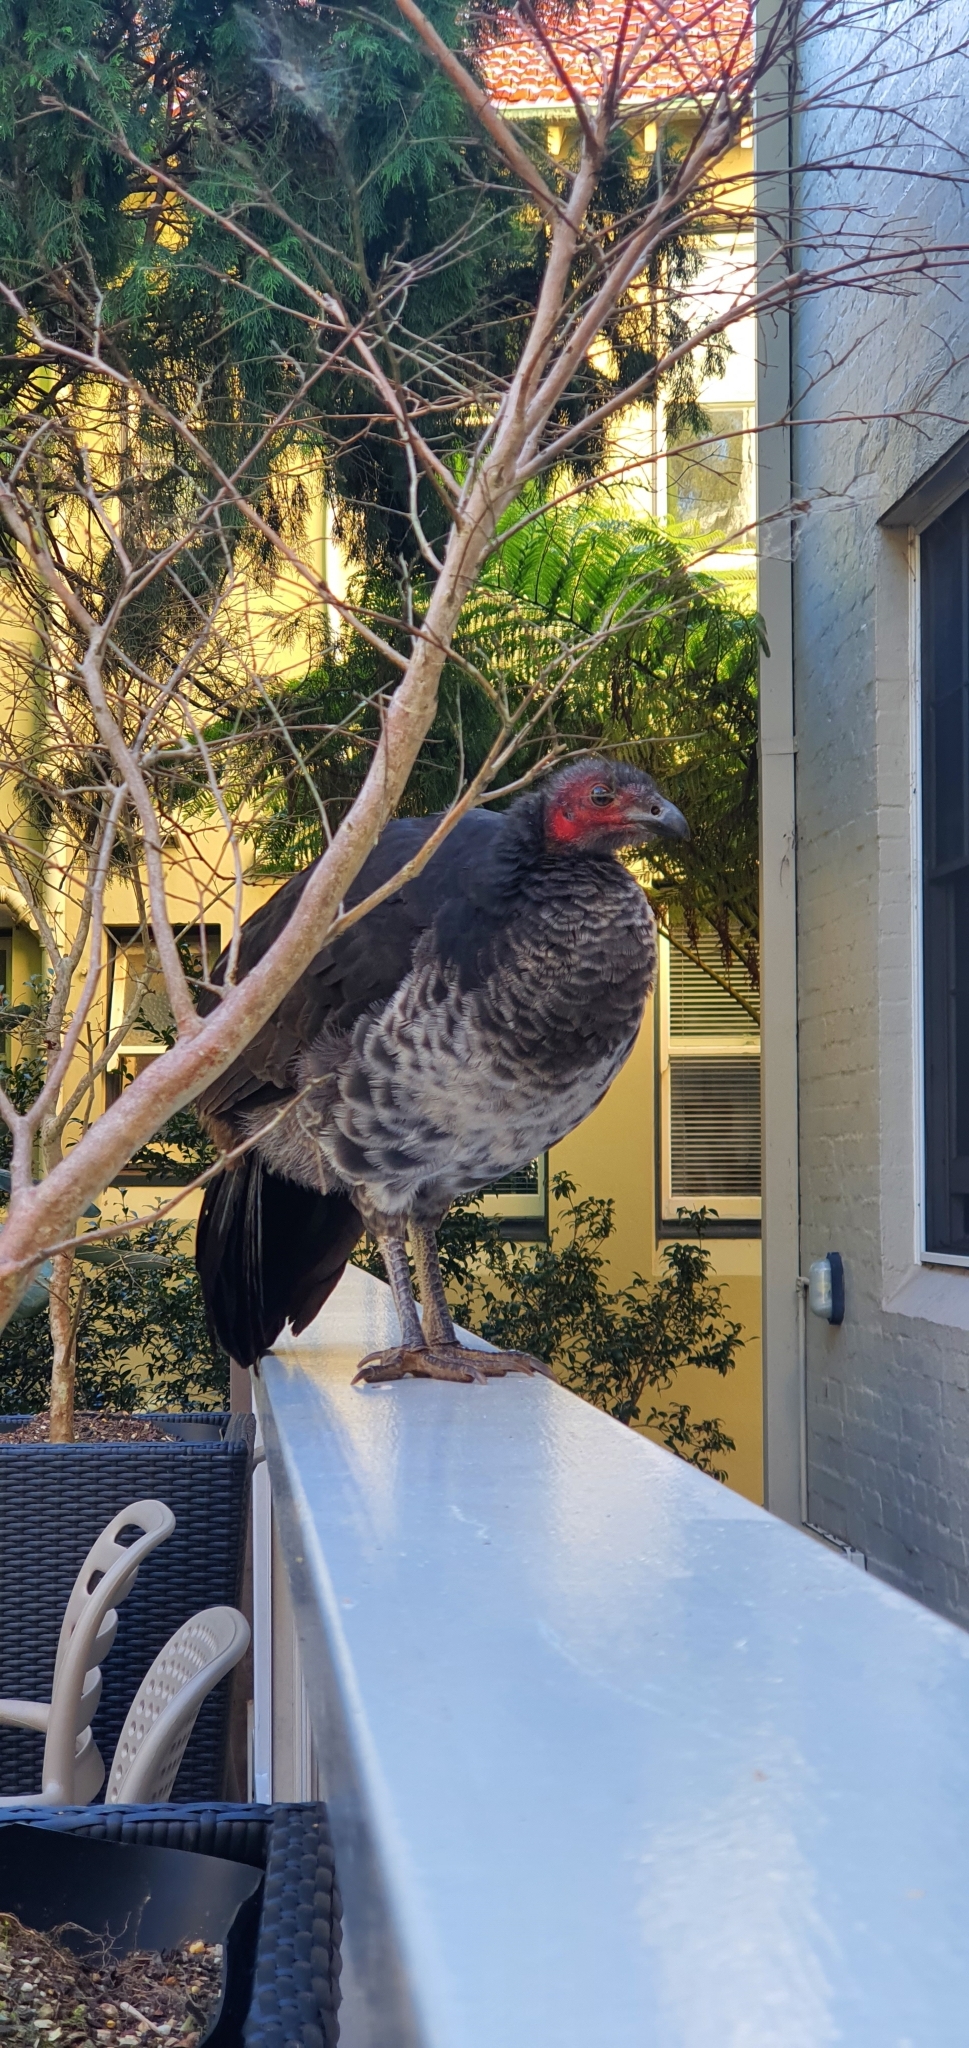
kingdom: Animalia
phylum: Chordata
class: Aves
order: Galliformes
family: Megapodiidae
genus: Alectura
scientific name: Alectura lathami
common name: Australian brushturkey
